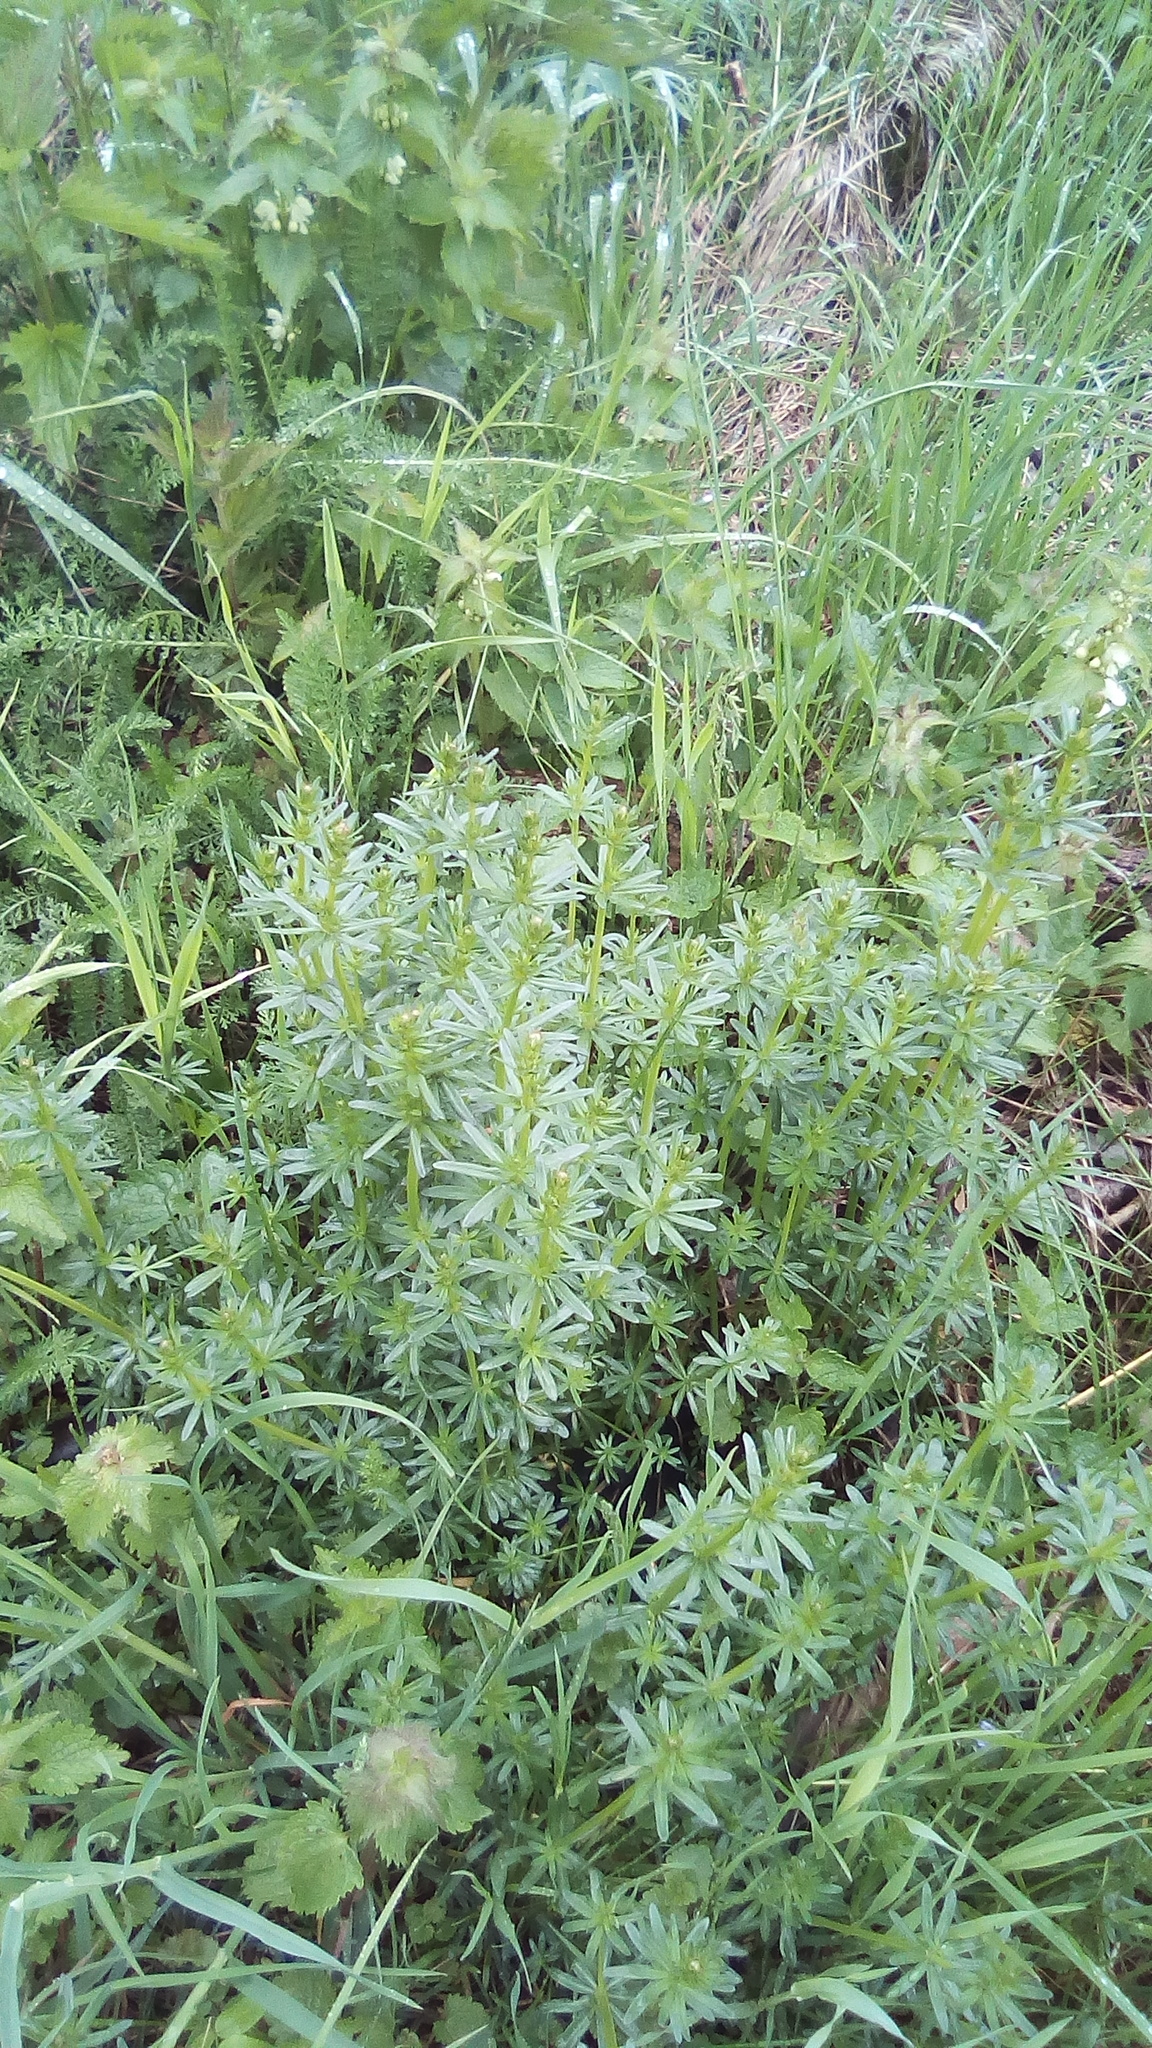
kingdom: Plantae
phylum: Tracheophyta
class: Magnoliopsida
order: Gentianales
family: Rubiaceae
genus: Galium
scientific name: Galium mollugo
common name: Hedge bedstraw
